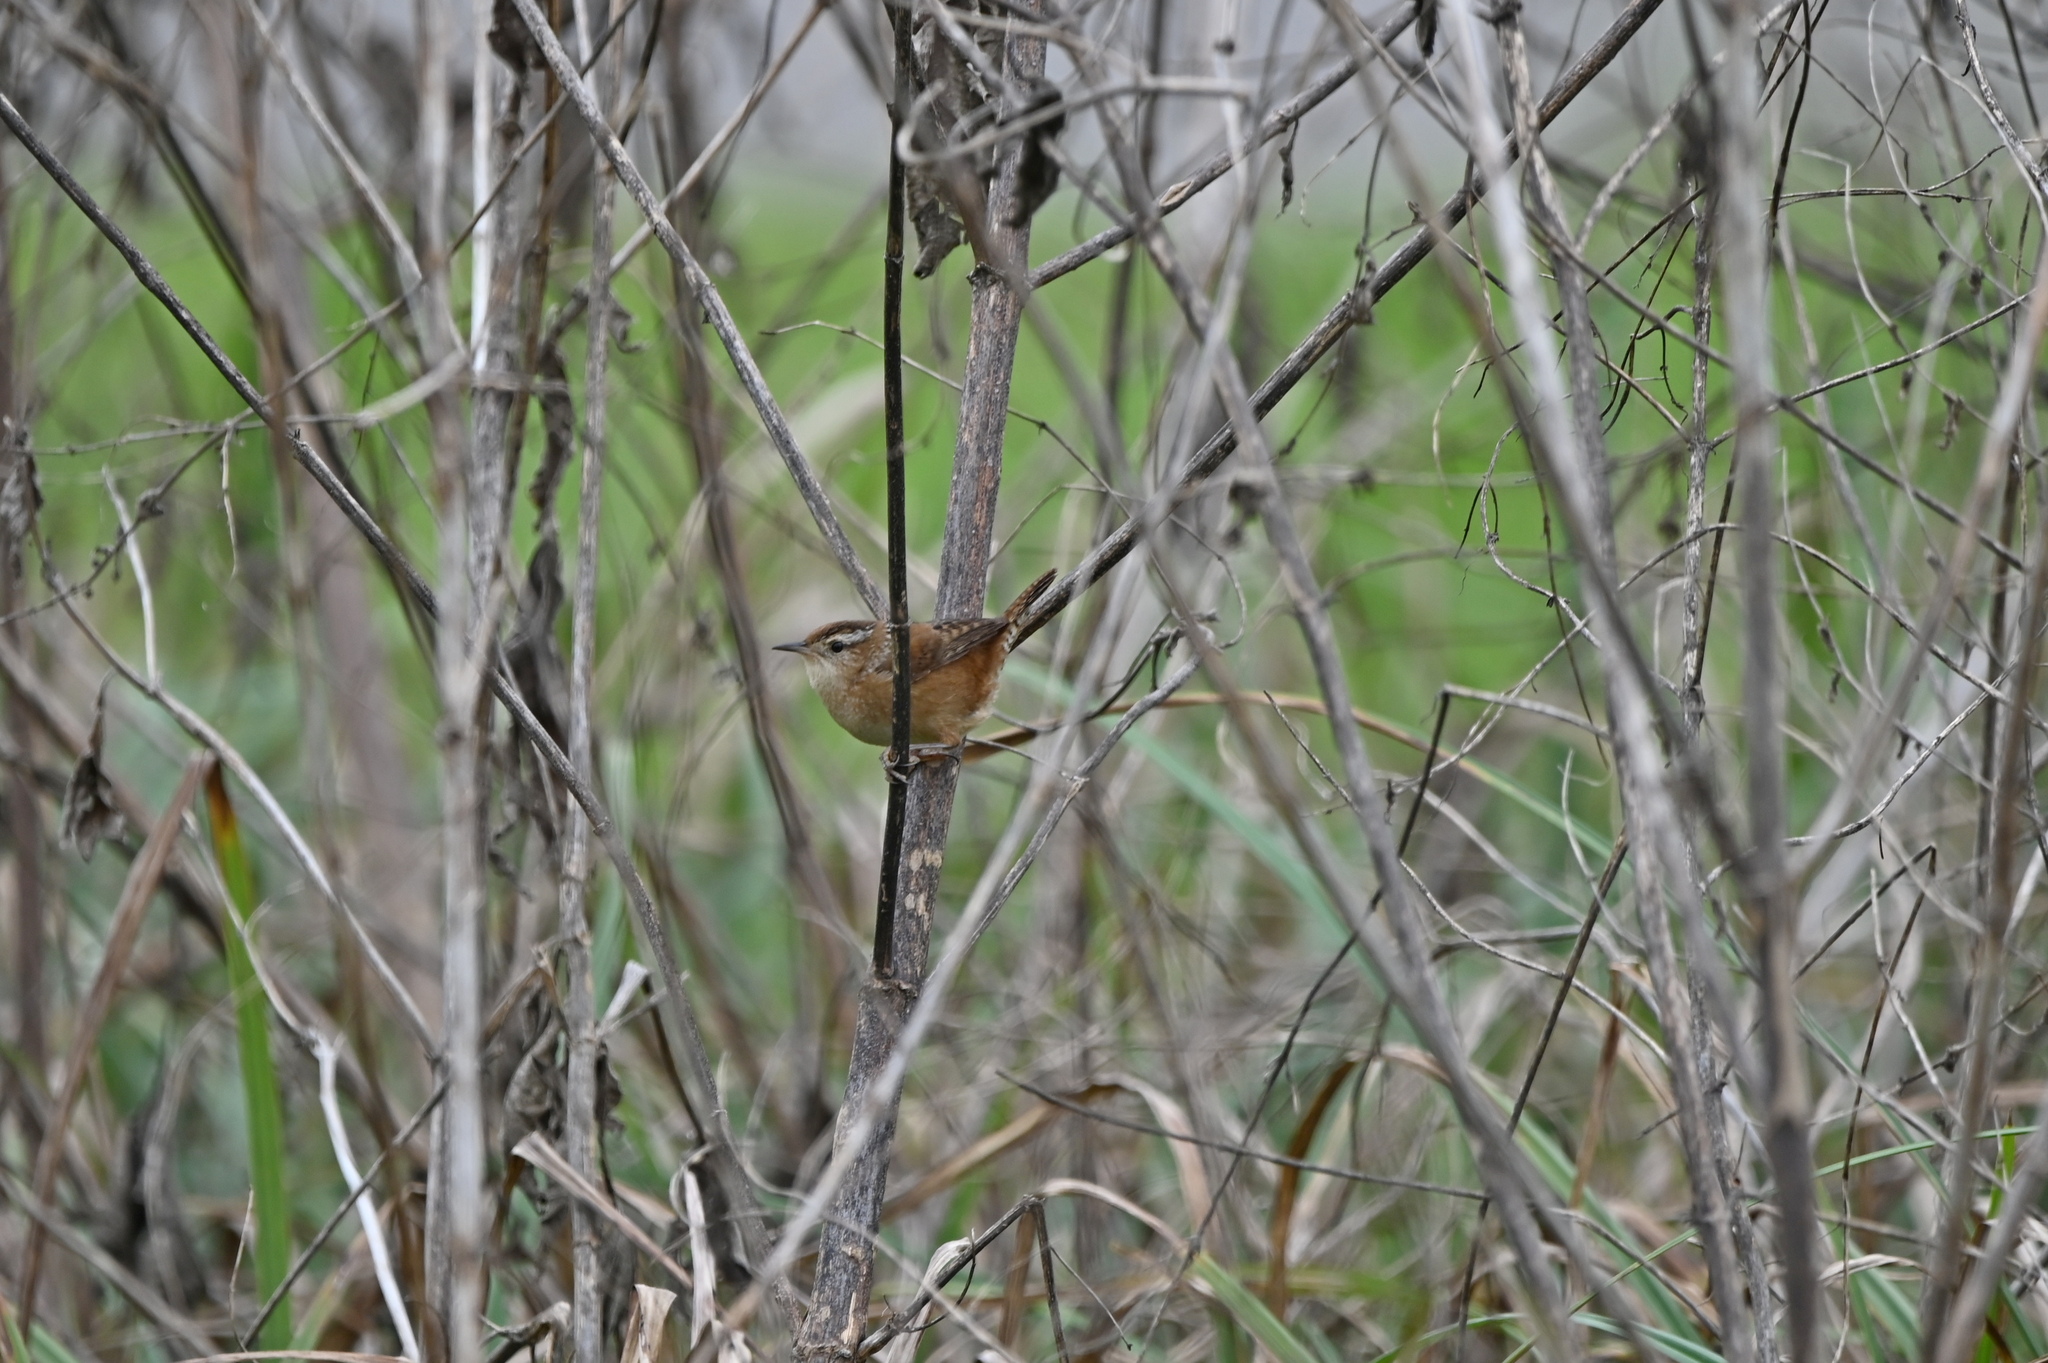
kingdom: Animalia
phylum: Chordata
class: Aves
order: Passeriformes
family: Troglodytidae
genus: Cistothorus
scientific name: Cistothorus palustris
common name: Marsh wren
